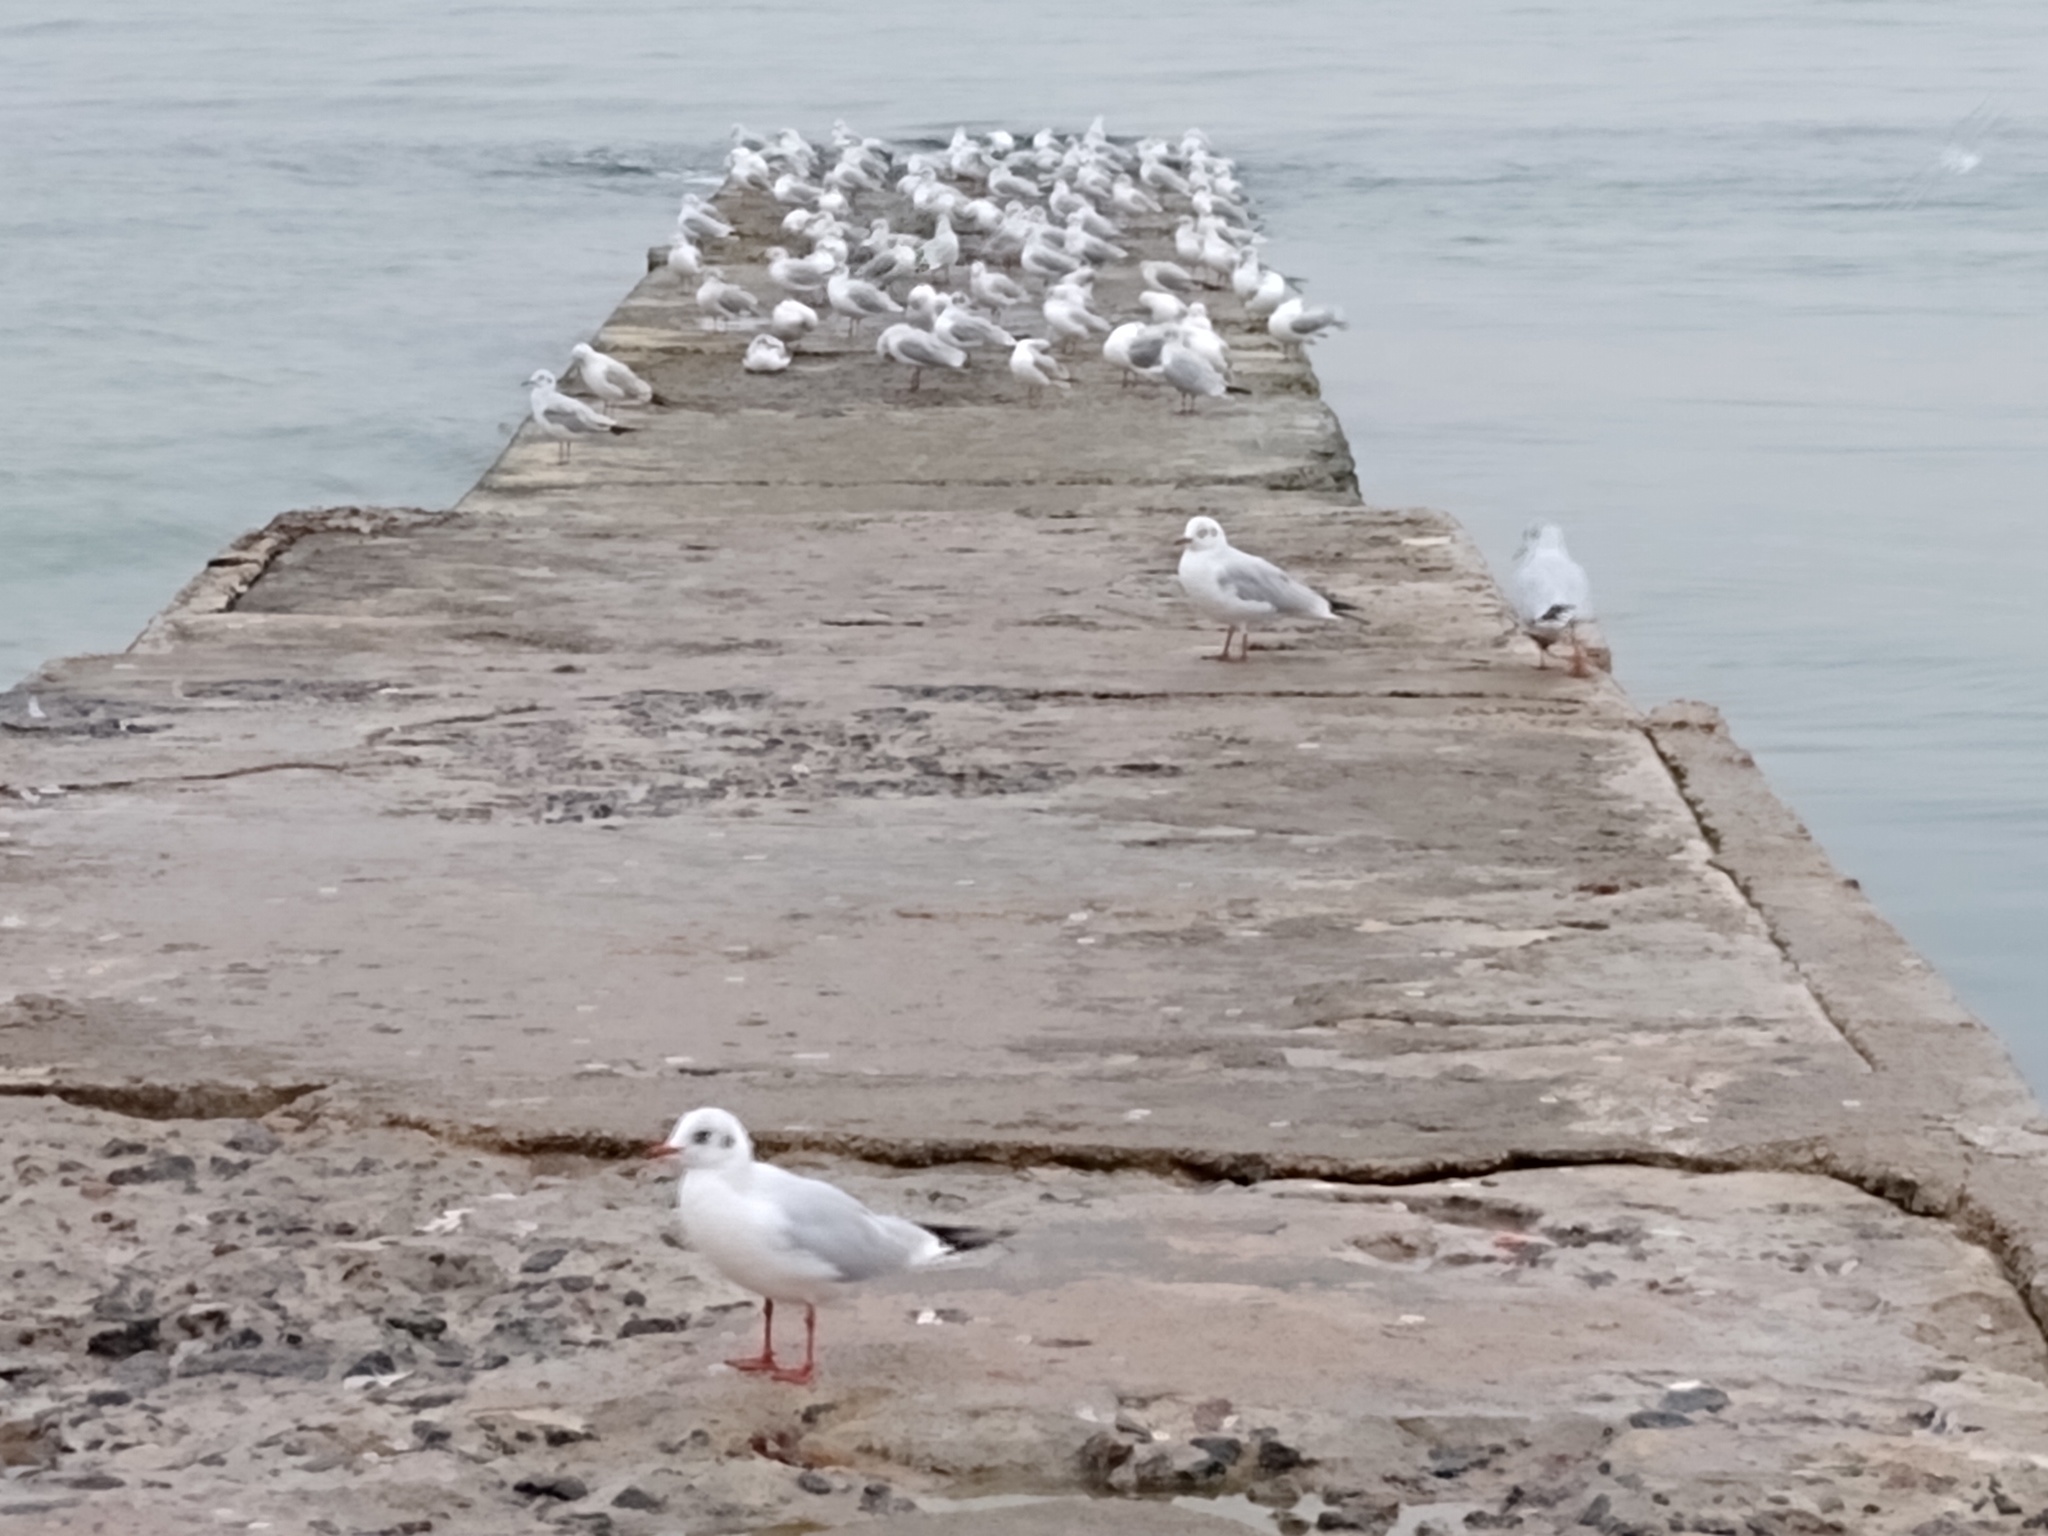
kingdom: Animalia
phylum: Chordata
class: Aves
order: Charadriiformes
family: Laridae
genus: Chroicocephalus
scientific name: Chroicocephalus ridibundus
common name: Black-headed gull
